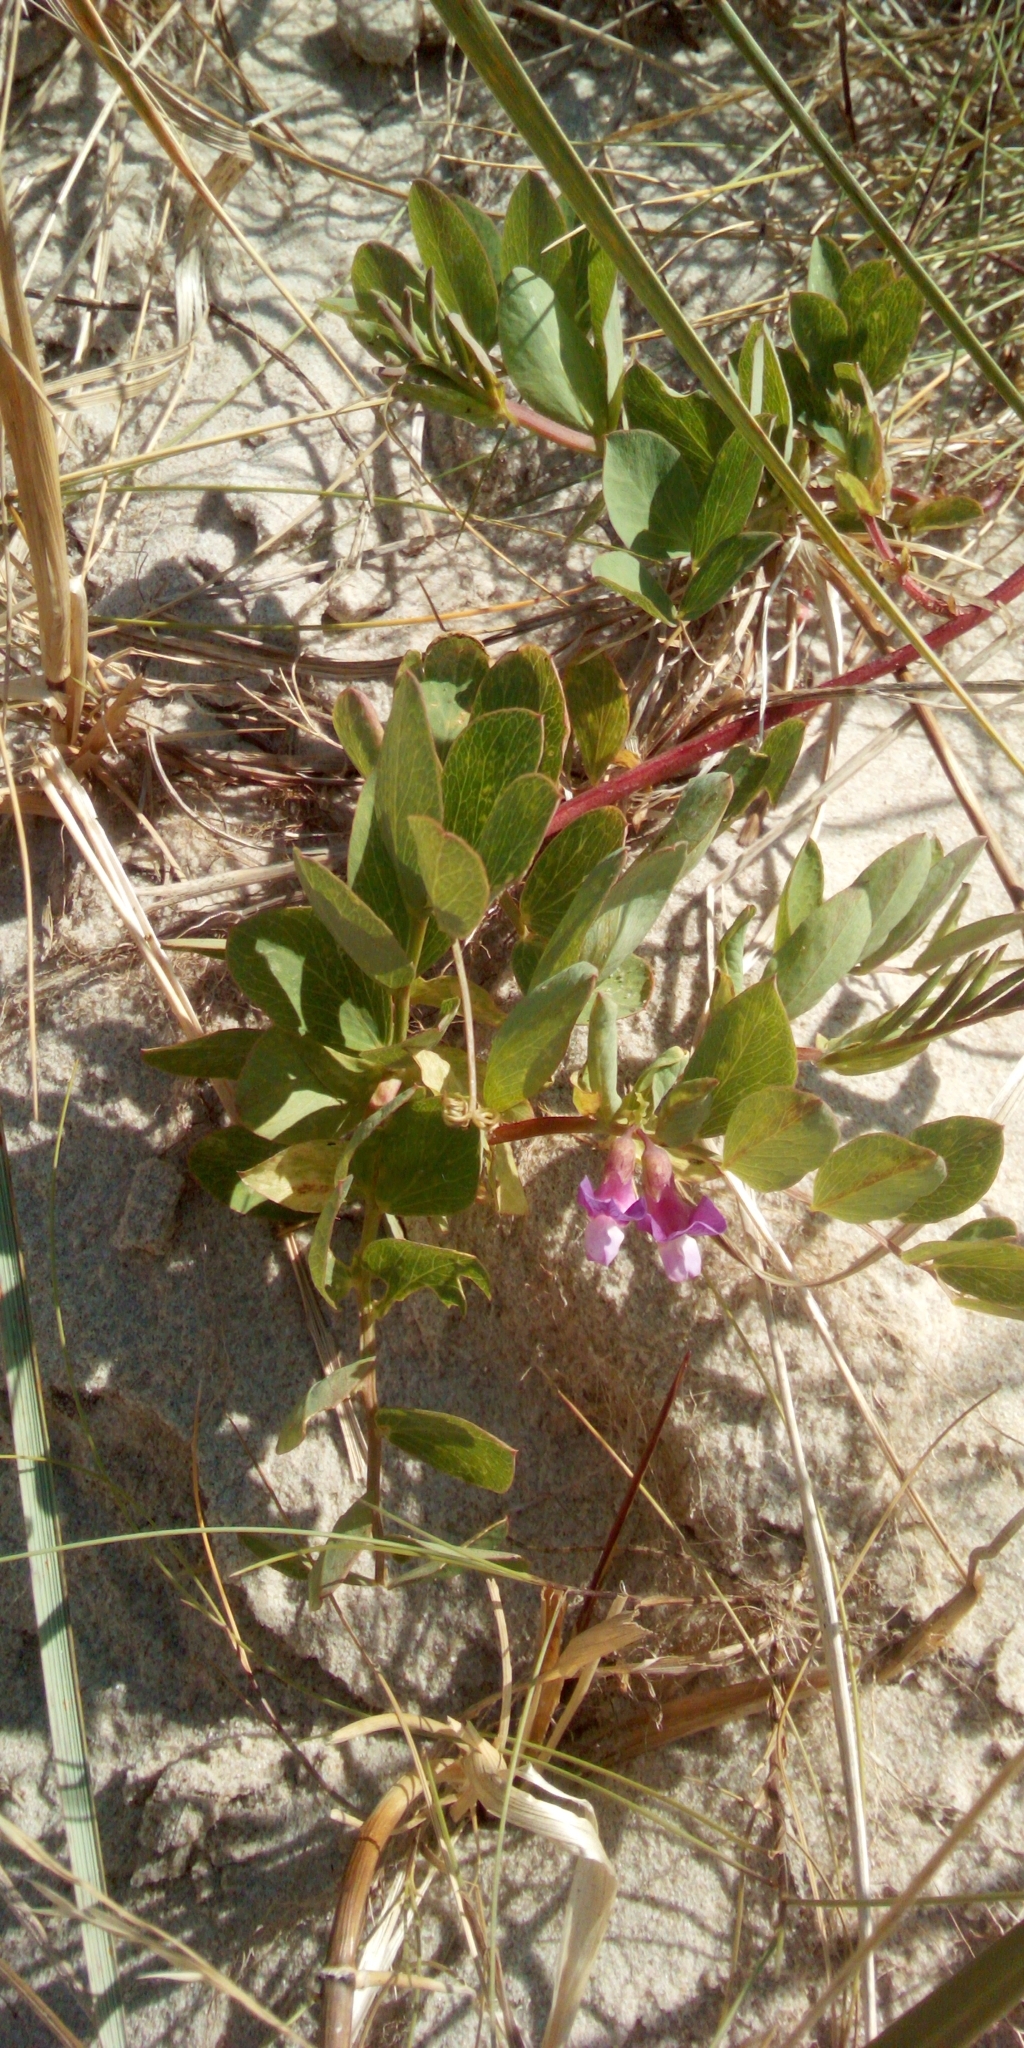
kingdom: Plantae
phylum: Tracheophyta
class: Magnoliopsida
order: Fabales
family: Fabaceae
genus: Lathyrus
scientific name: Lathyrus japonicus
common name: Sea pea
